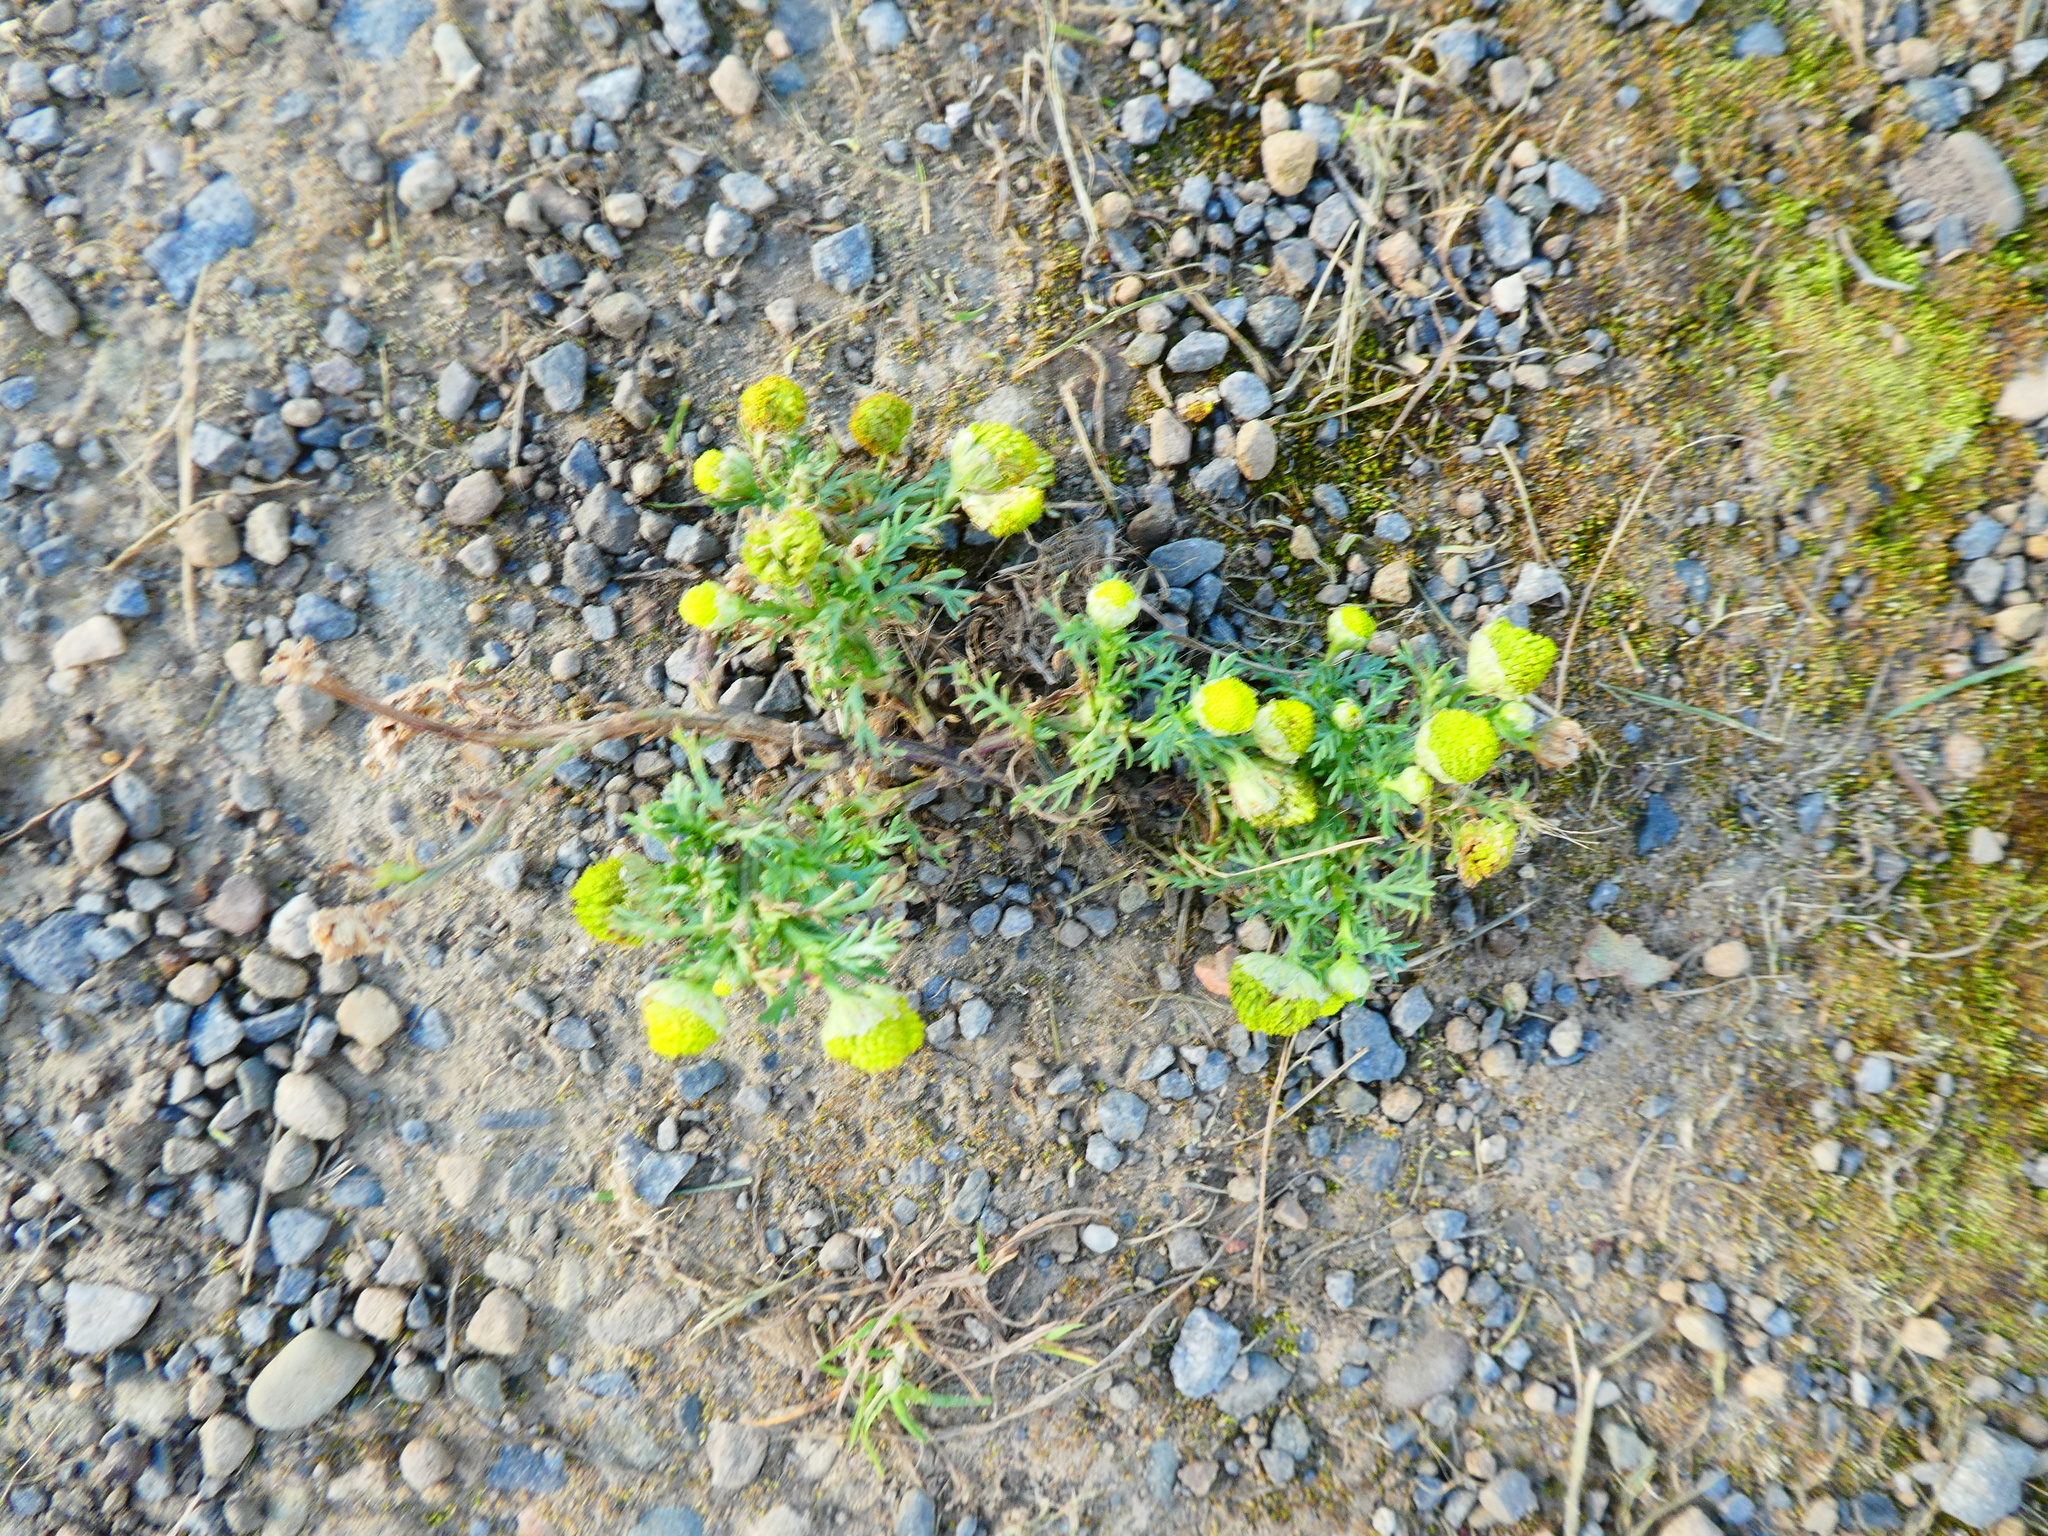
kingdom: Plantae
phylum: Tracheophyta
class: Magnoliopsida
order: Asterales
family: Asteraceae
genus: Matricaria
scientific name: Matricaria discoidea
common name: Disc mayweed
